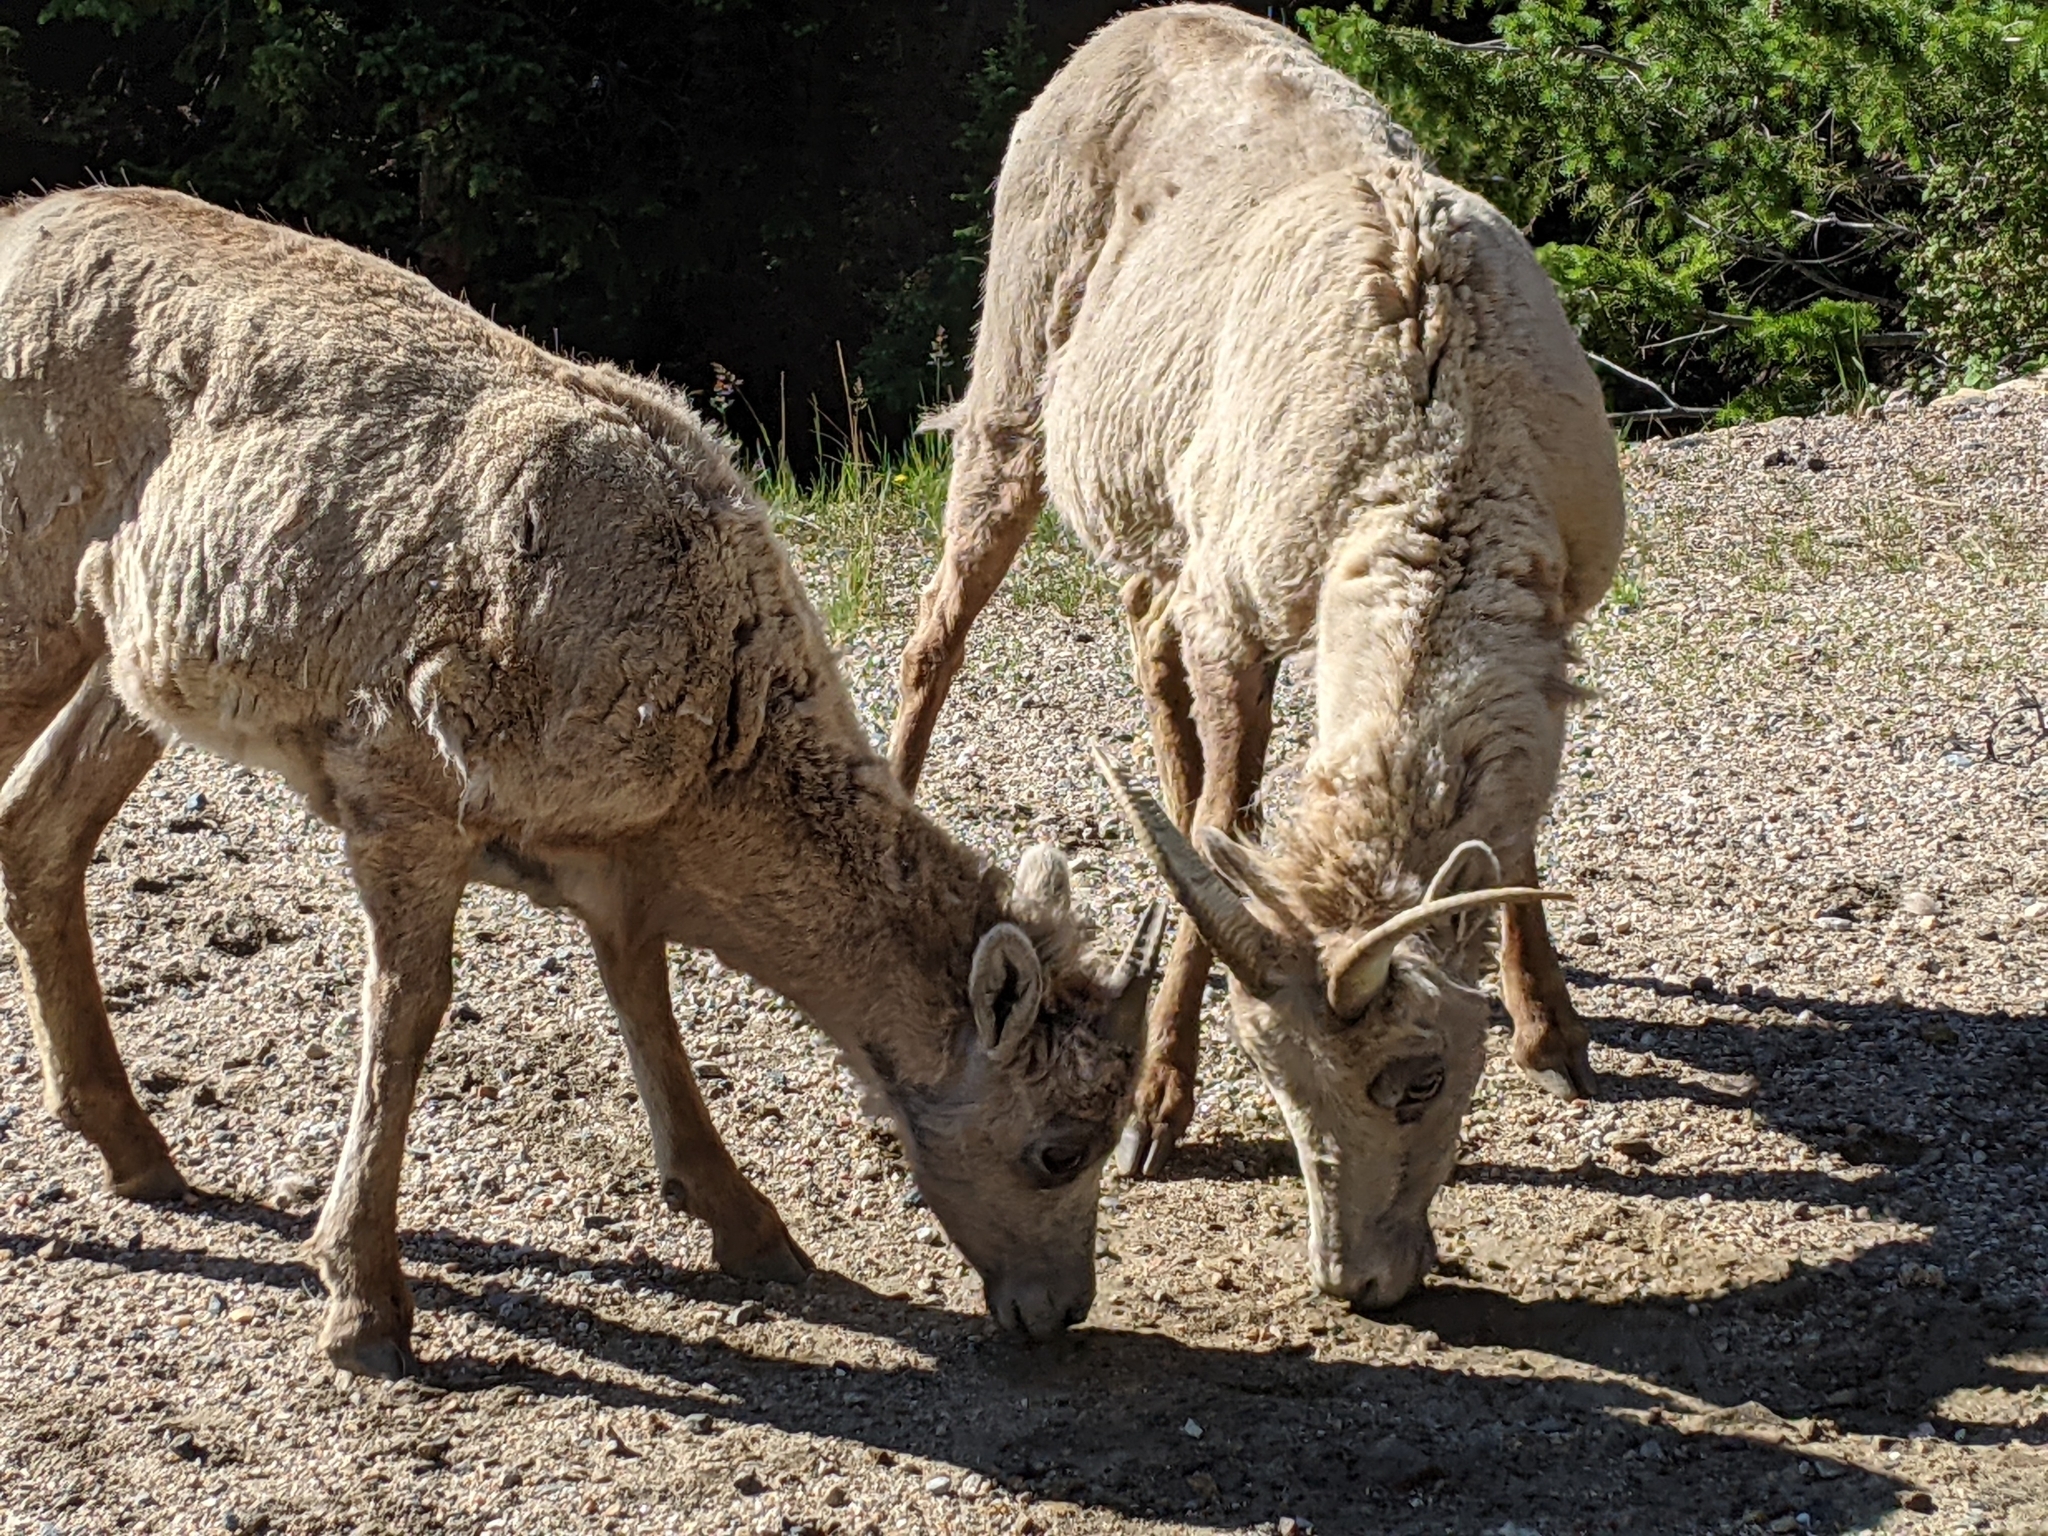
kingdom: Animalia
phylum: Chordata
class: Mammalia
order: Artiodactyla
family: Bovidae
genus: Ovis
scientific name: Ovis canadensis
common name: Bighorn sheep
